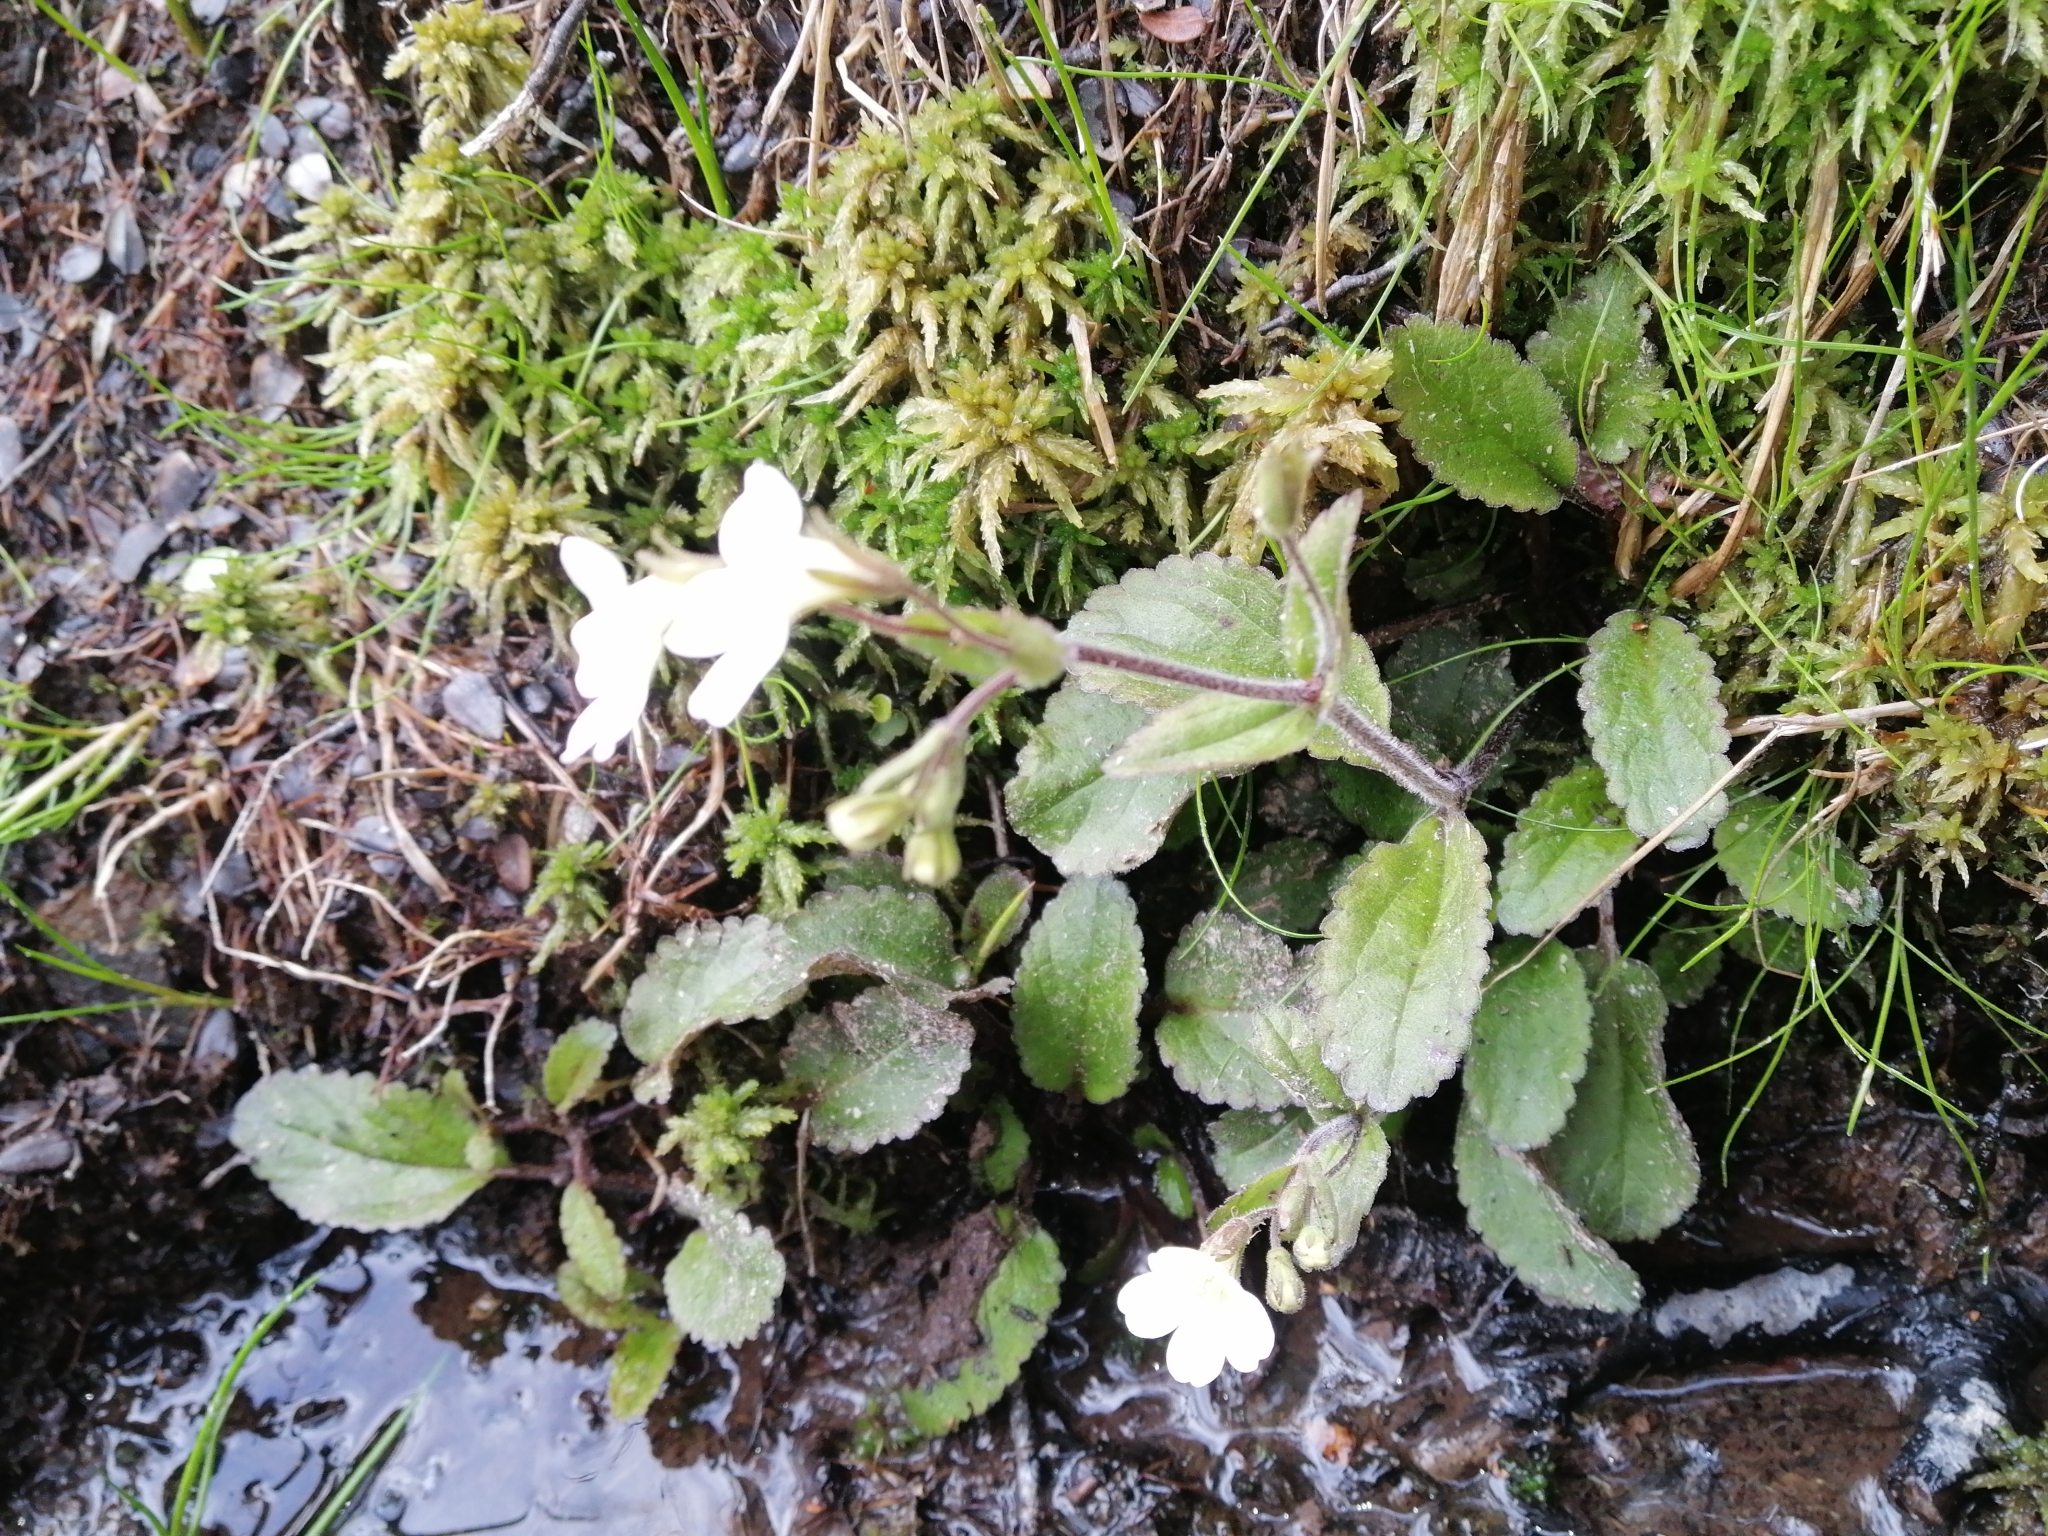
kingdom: Plantae
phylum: Tracheophyta
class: Magnoliopsida
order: Lamiales
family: Plantaginaceae
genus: Ourisia
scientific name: Ourisia macrophylla
